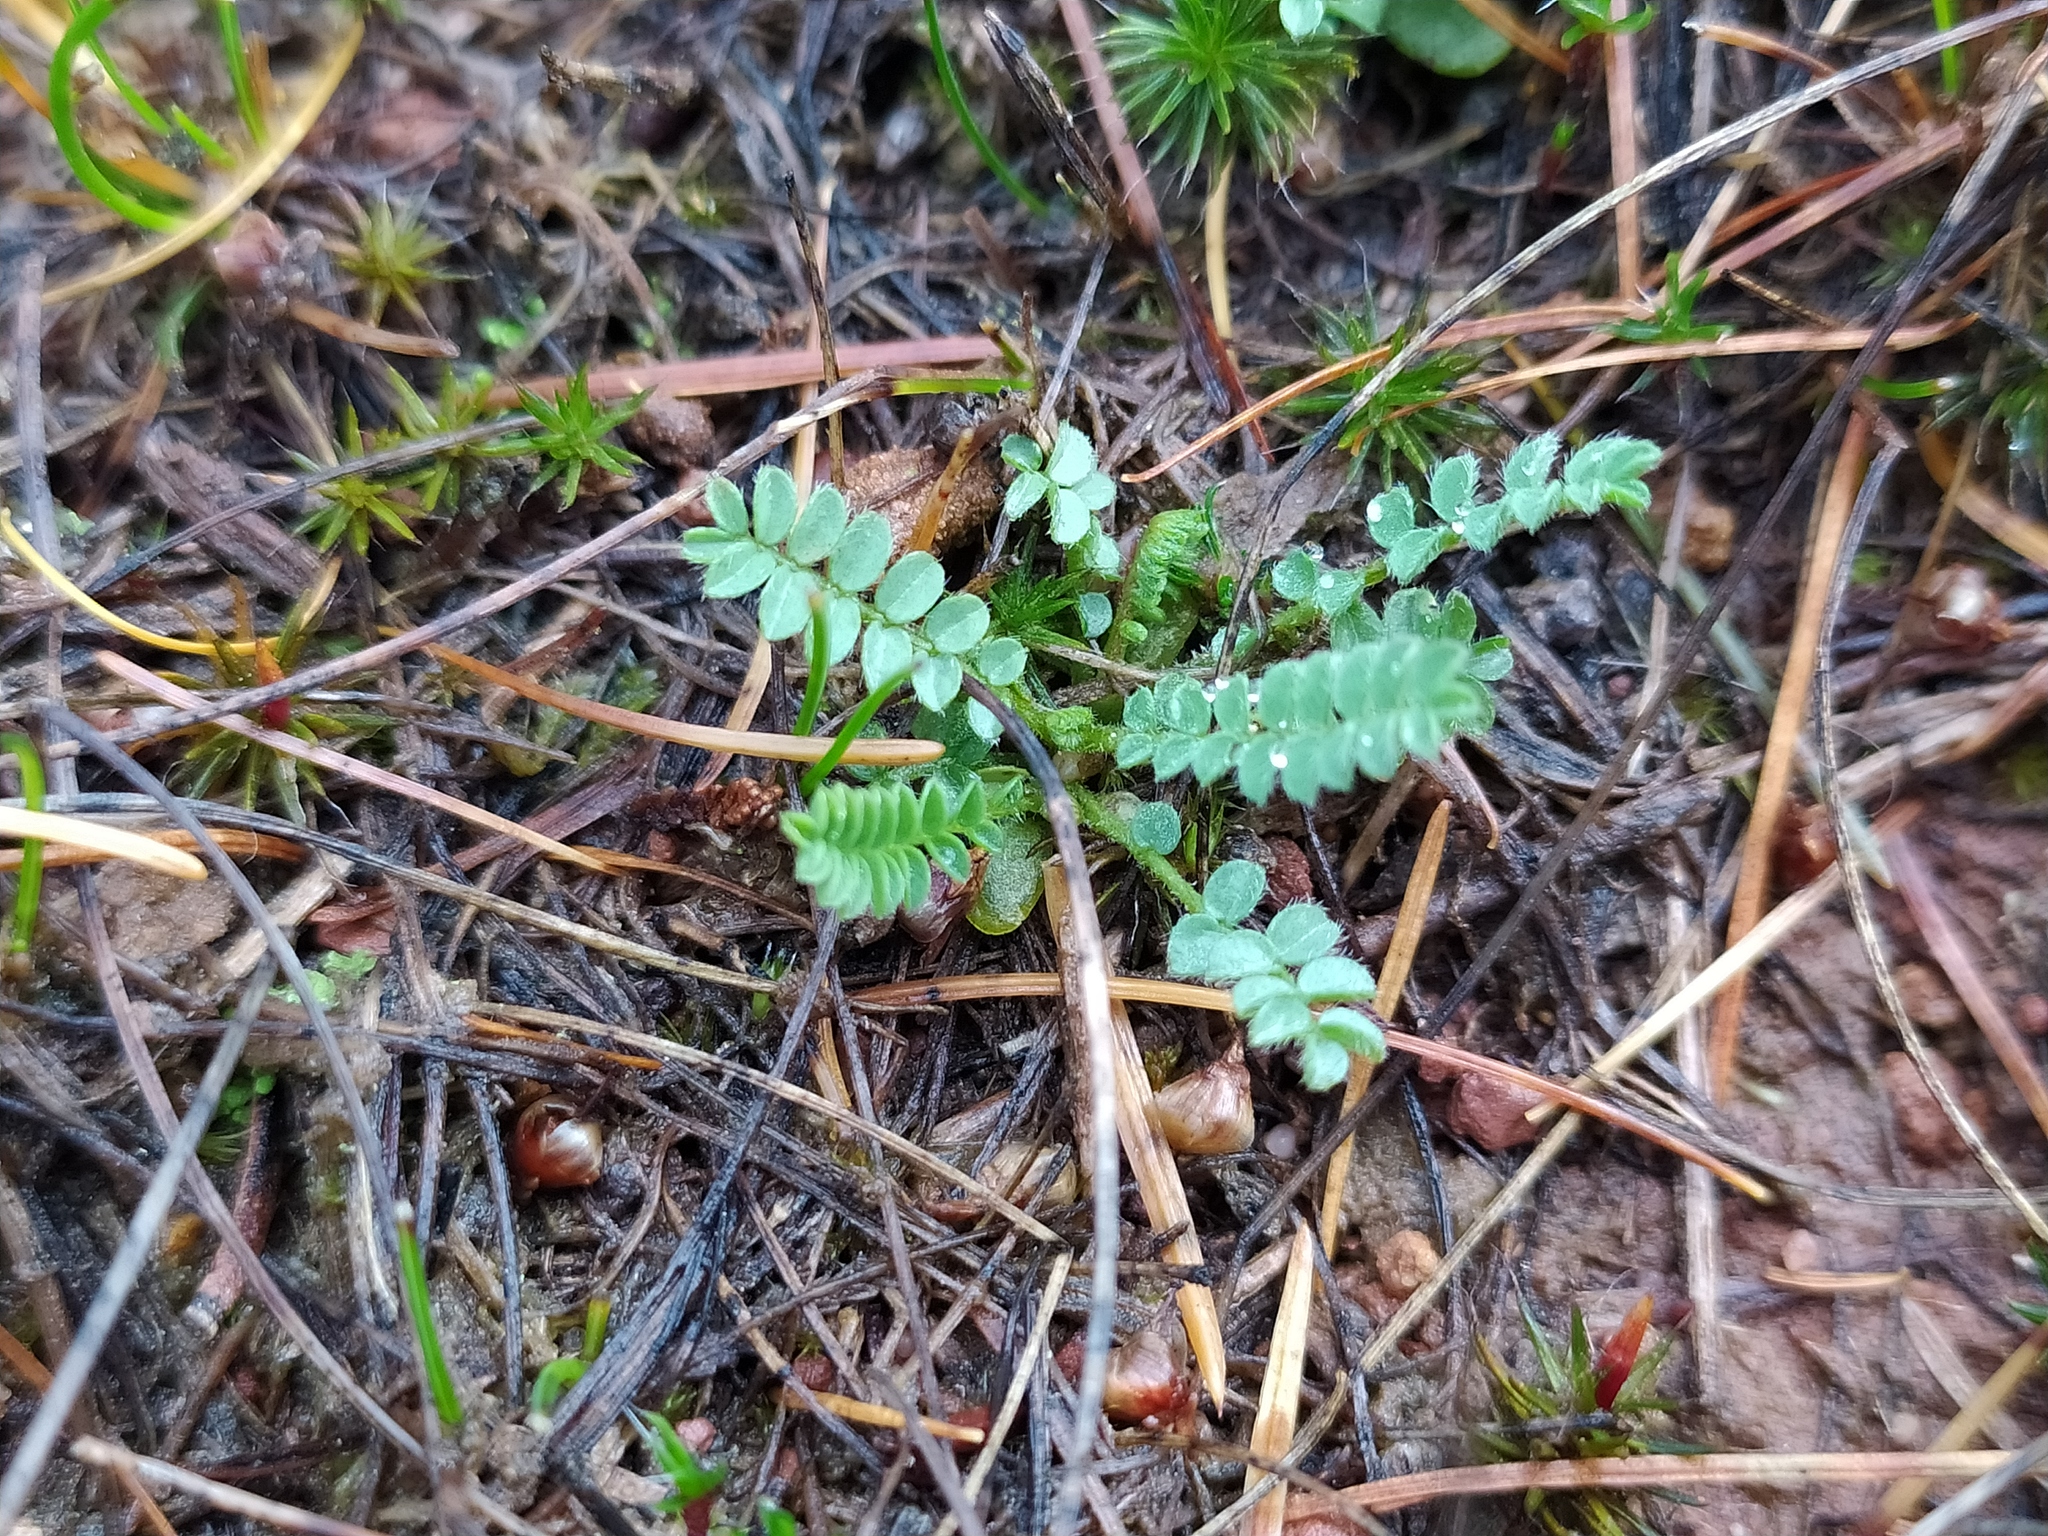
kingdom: Plantae
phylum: Tracheophyta
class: Magnoliopsida
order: Fabales
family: Fabaceae
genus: Ornithopus
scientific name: Ornithopus perpusillus
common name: Bird's-foot
